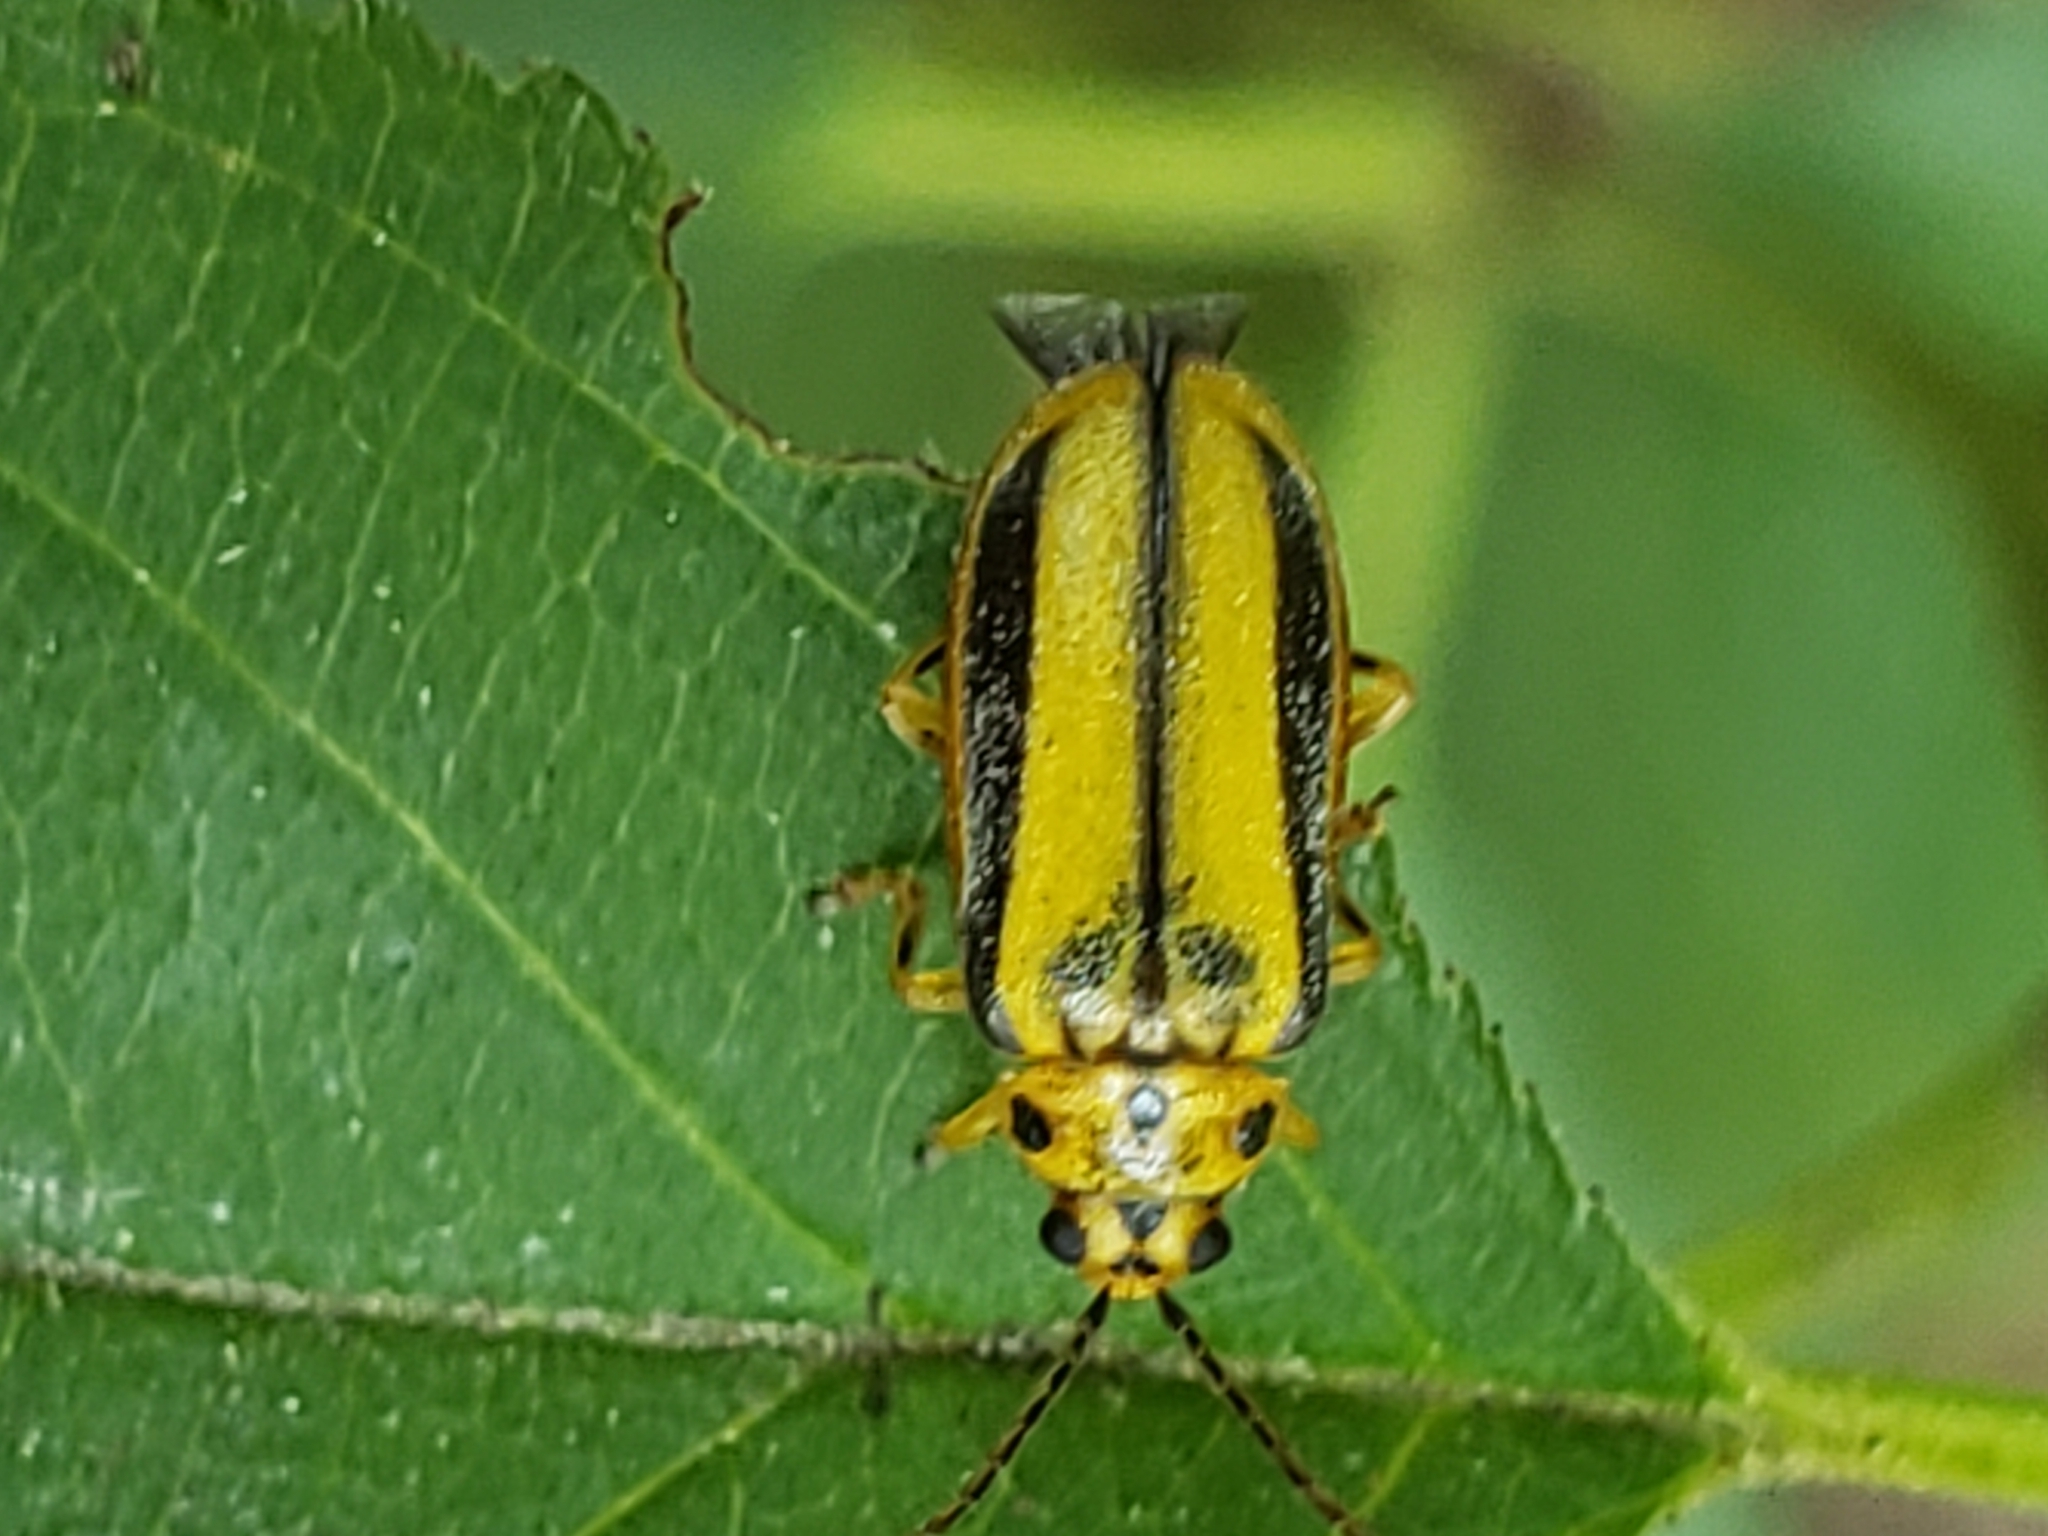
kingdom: Animalia
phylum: Arthropoda
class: Insecta
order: Coleoptera
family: Chrysomelidae
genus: Xanthogaleruca
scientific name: Xanthogaleruca luteola
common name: Elm leaf beetle
